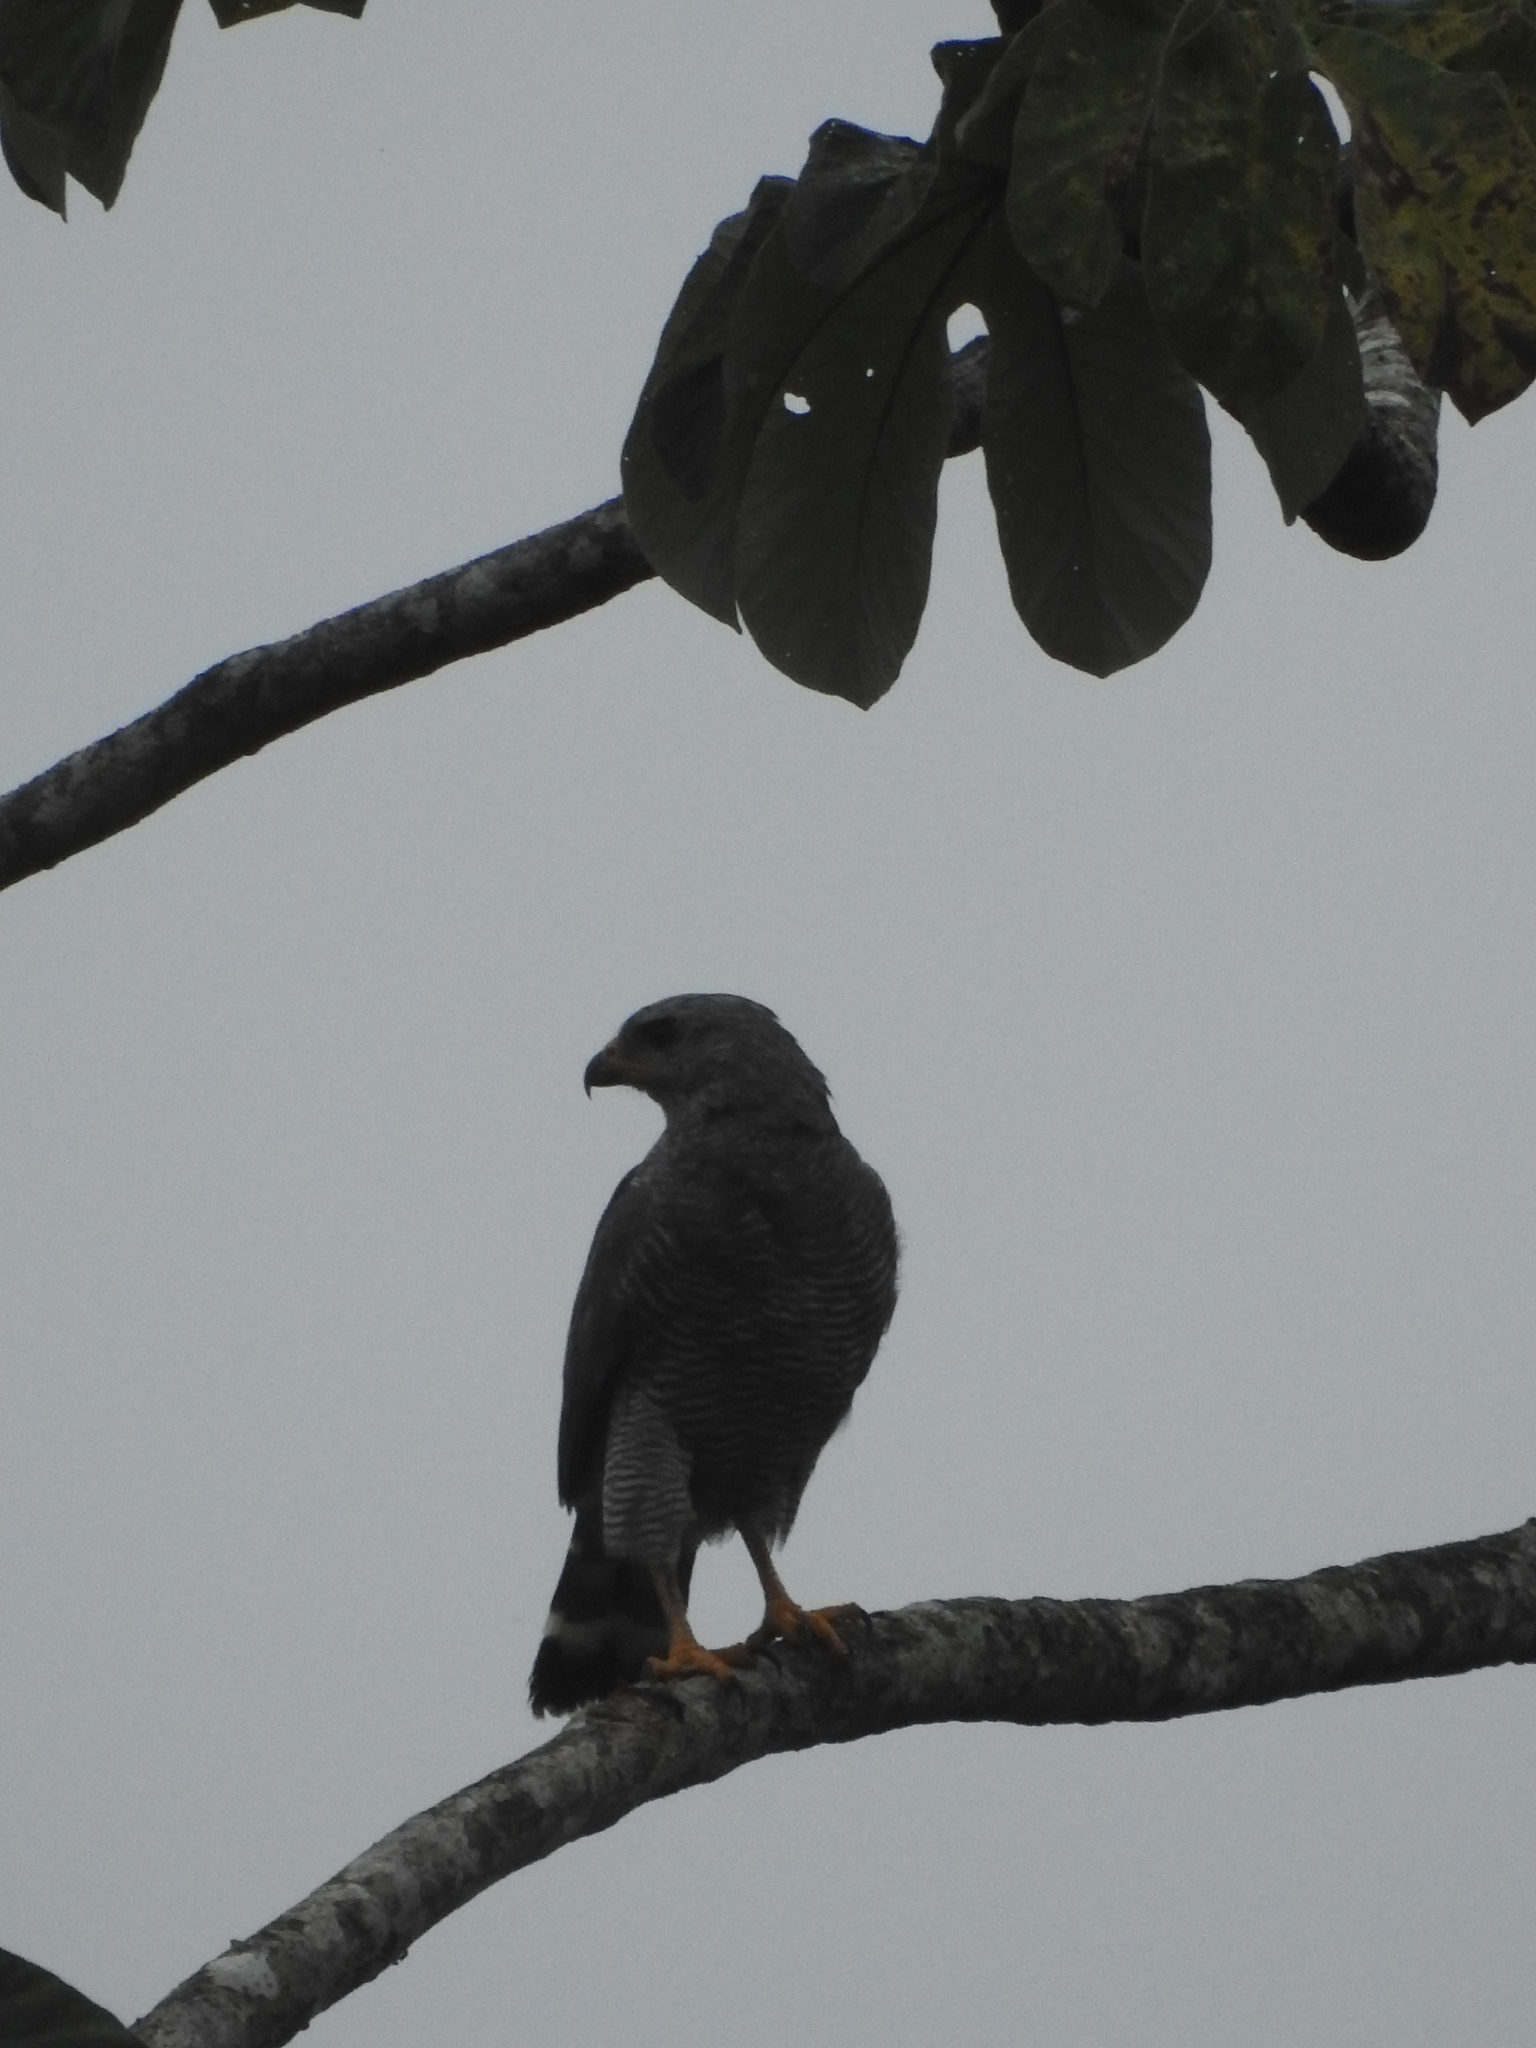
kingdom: Animalia
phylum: Chordata
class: Aves
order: Accipitriformes
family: Accipitridae
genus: Buteo
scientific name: Buteo nitidus
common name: Grey-lined hawk
